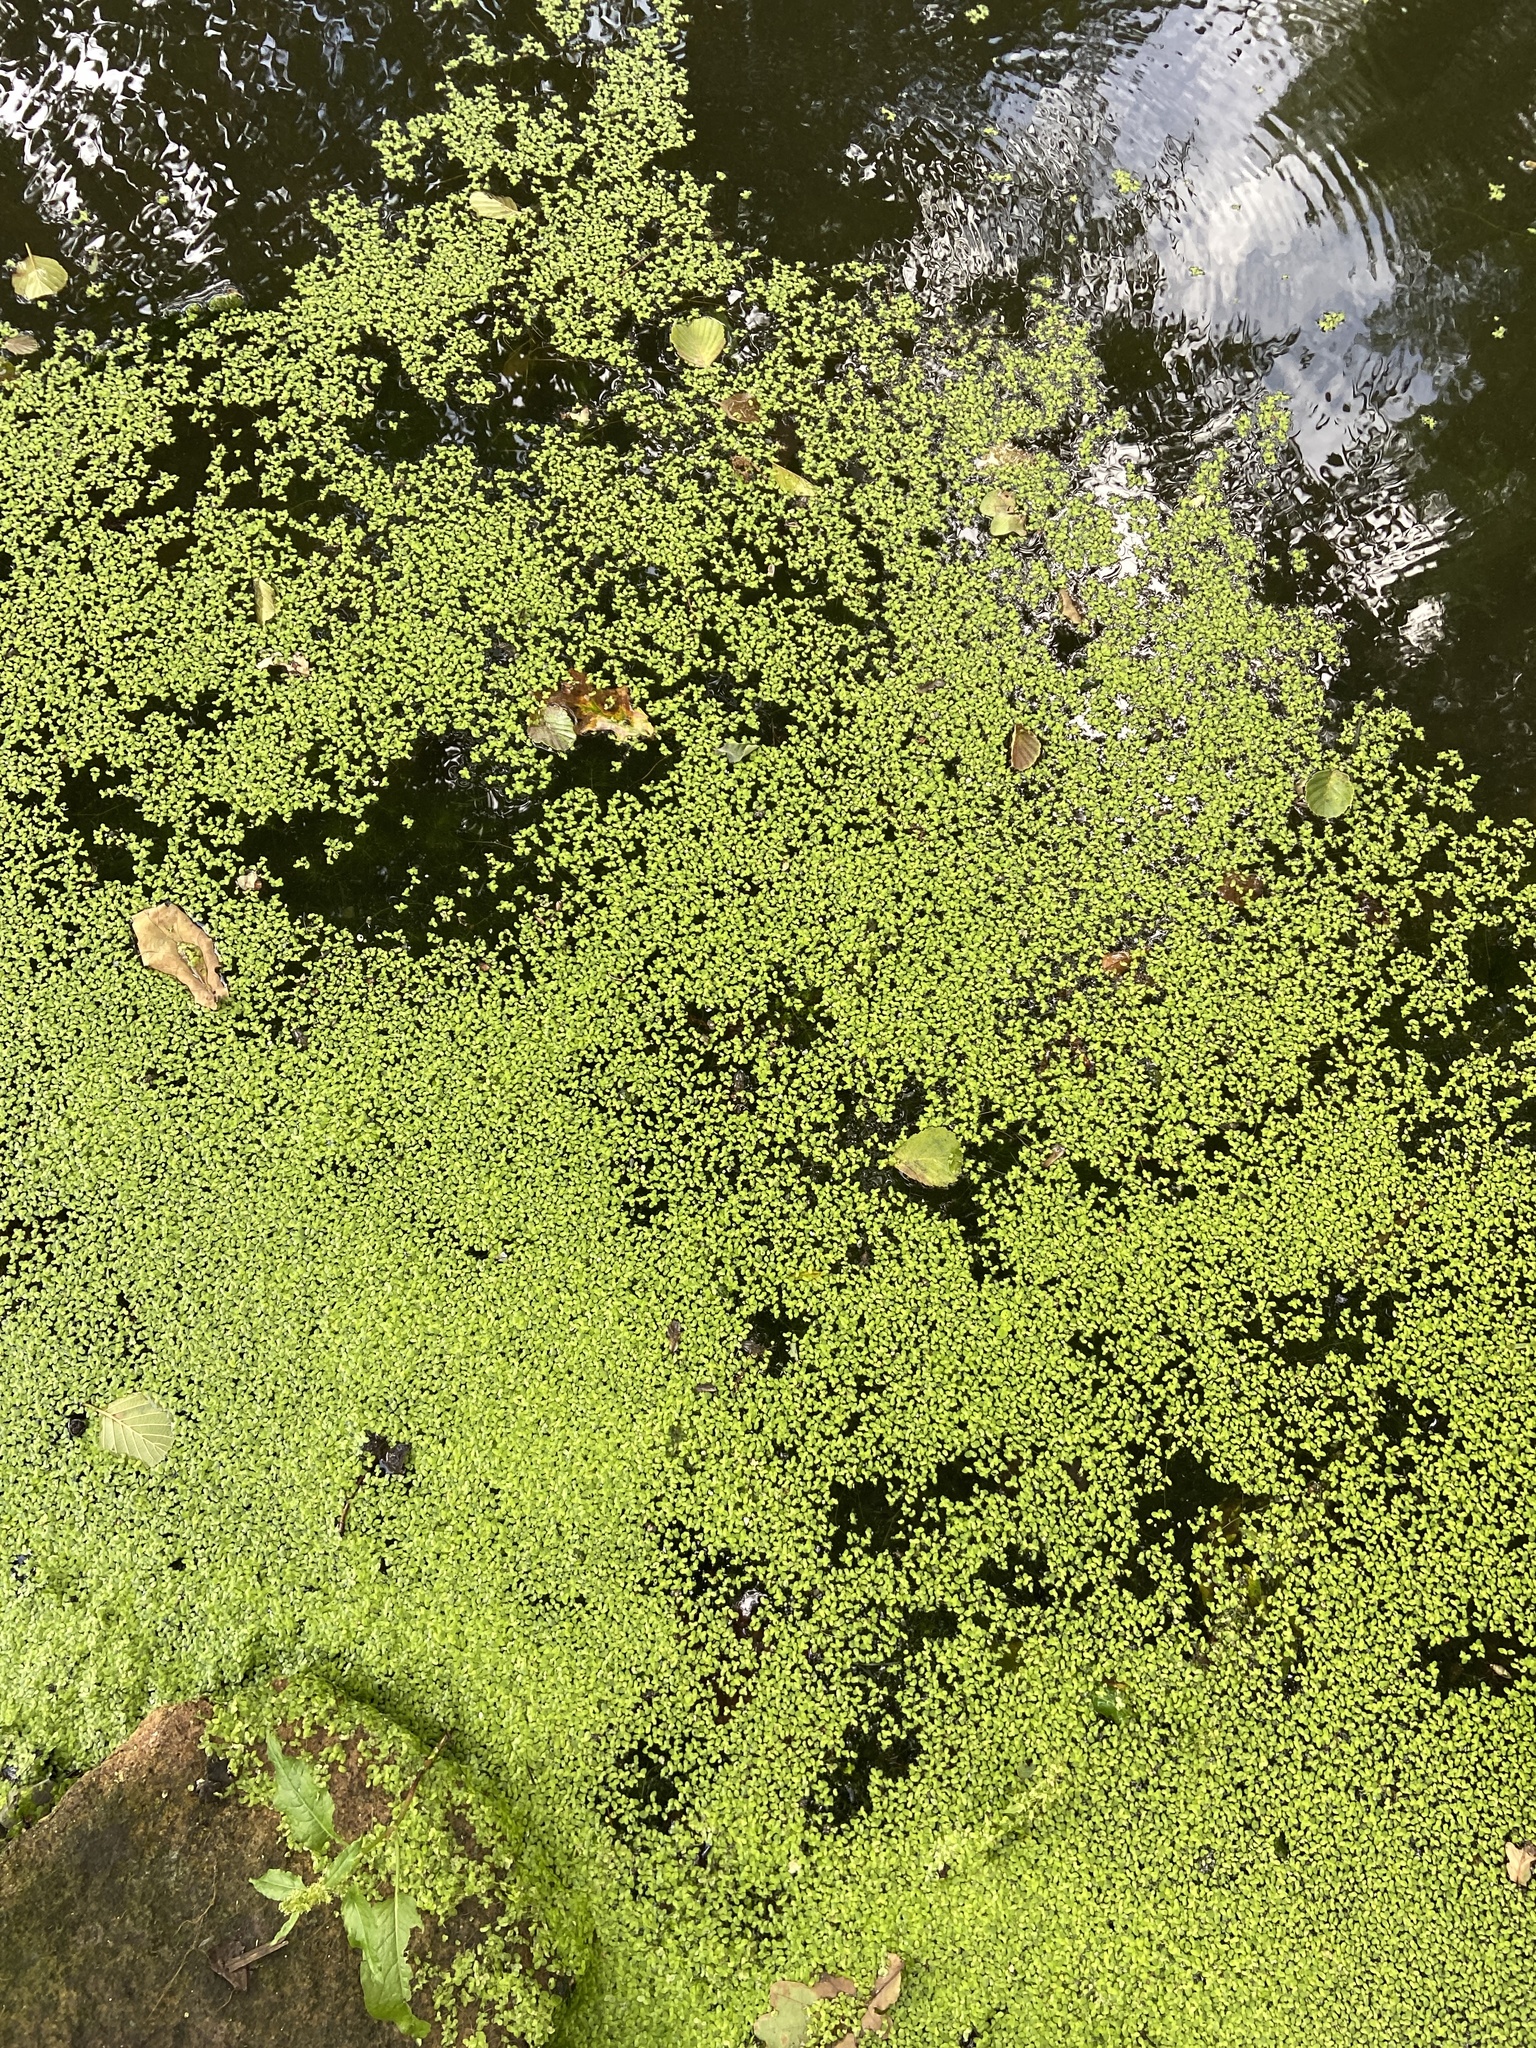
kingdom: Plantae
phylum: Tracheophyta
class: Liliopsida
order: Alismatales
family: Araceae
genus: Lemna
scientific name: Lemna minor
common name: Common duckweed
